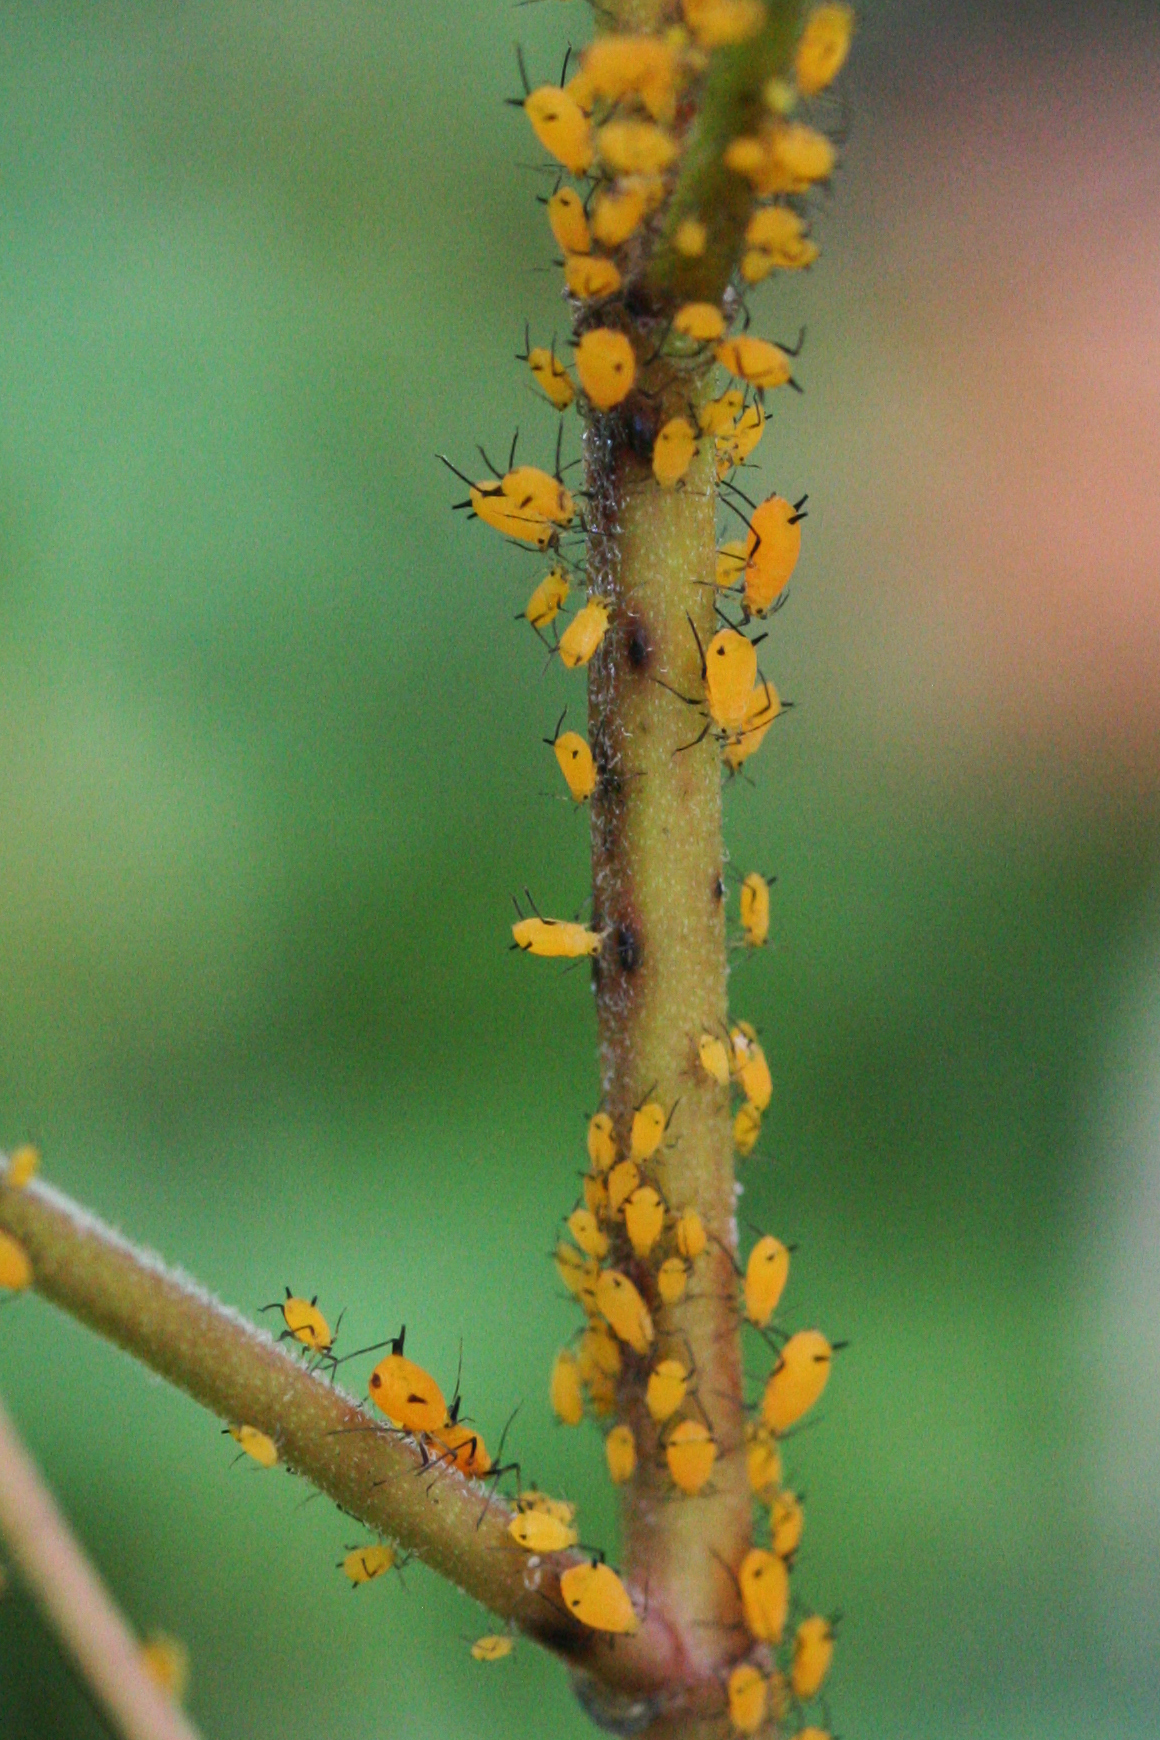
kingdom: Animalia
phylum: Arthropoda
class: Insecta
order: Hemiptera
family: Aphididae
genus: Aphis
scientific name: Aphis nerii
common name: Oleander aphid
